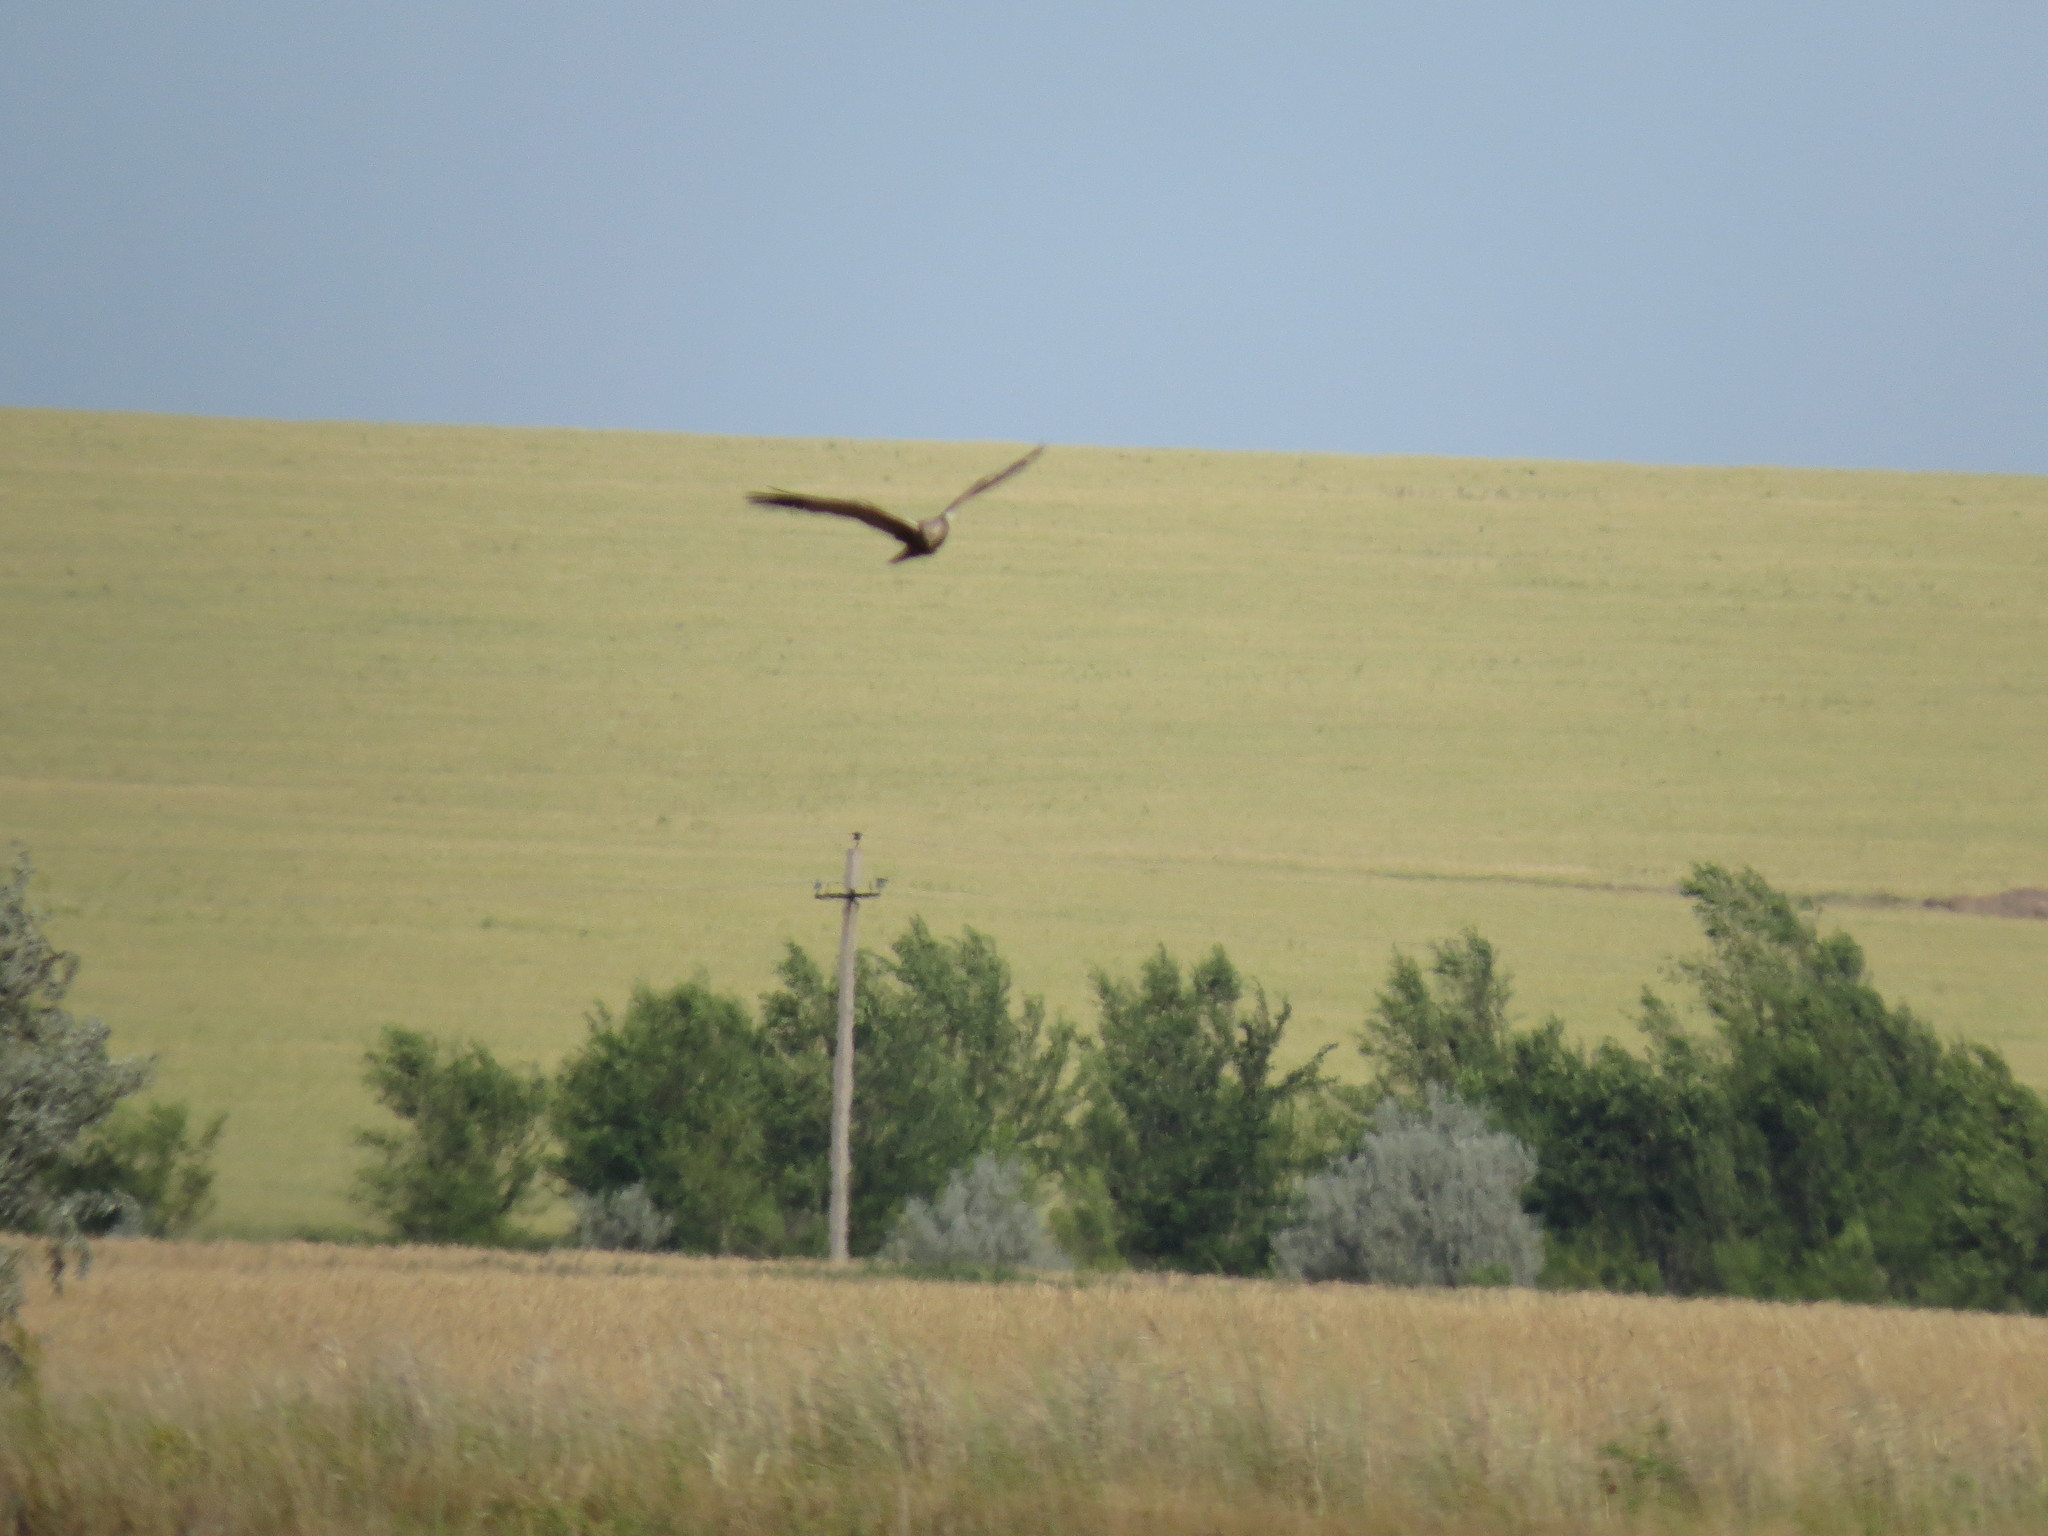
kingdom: Animalia
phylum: Chordata
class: Aves
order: Accipitriformes
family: Accipitridae
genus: Circus
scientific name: Circus aeruginosus
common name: Western marsh harrier
